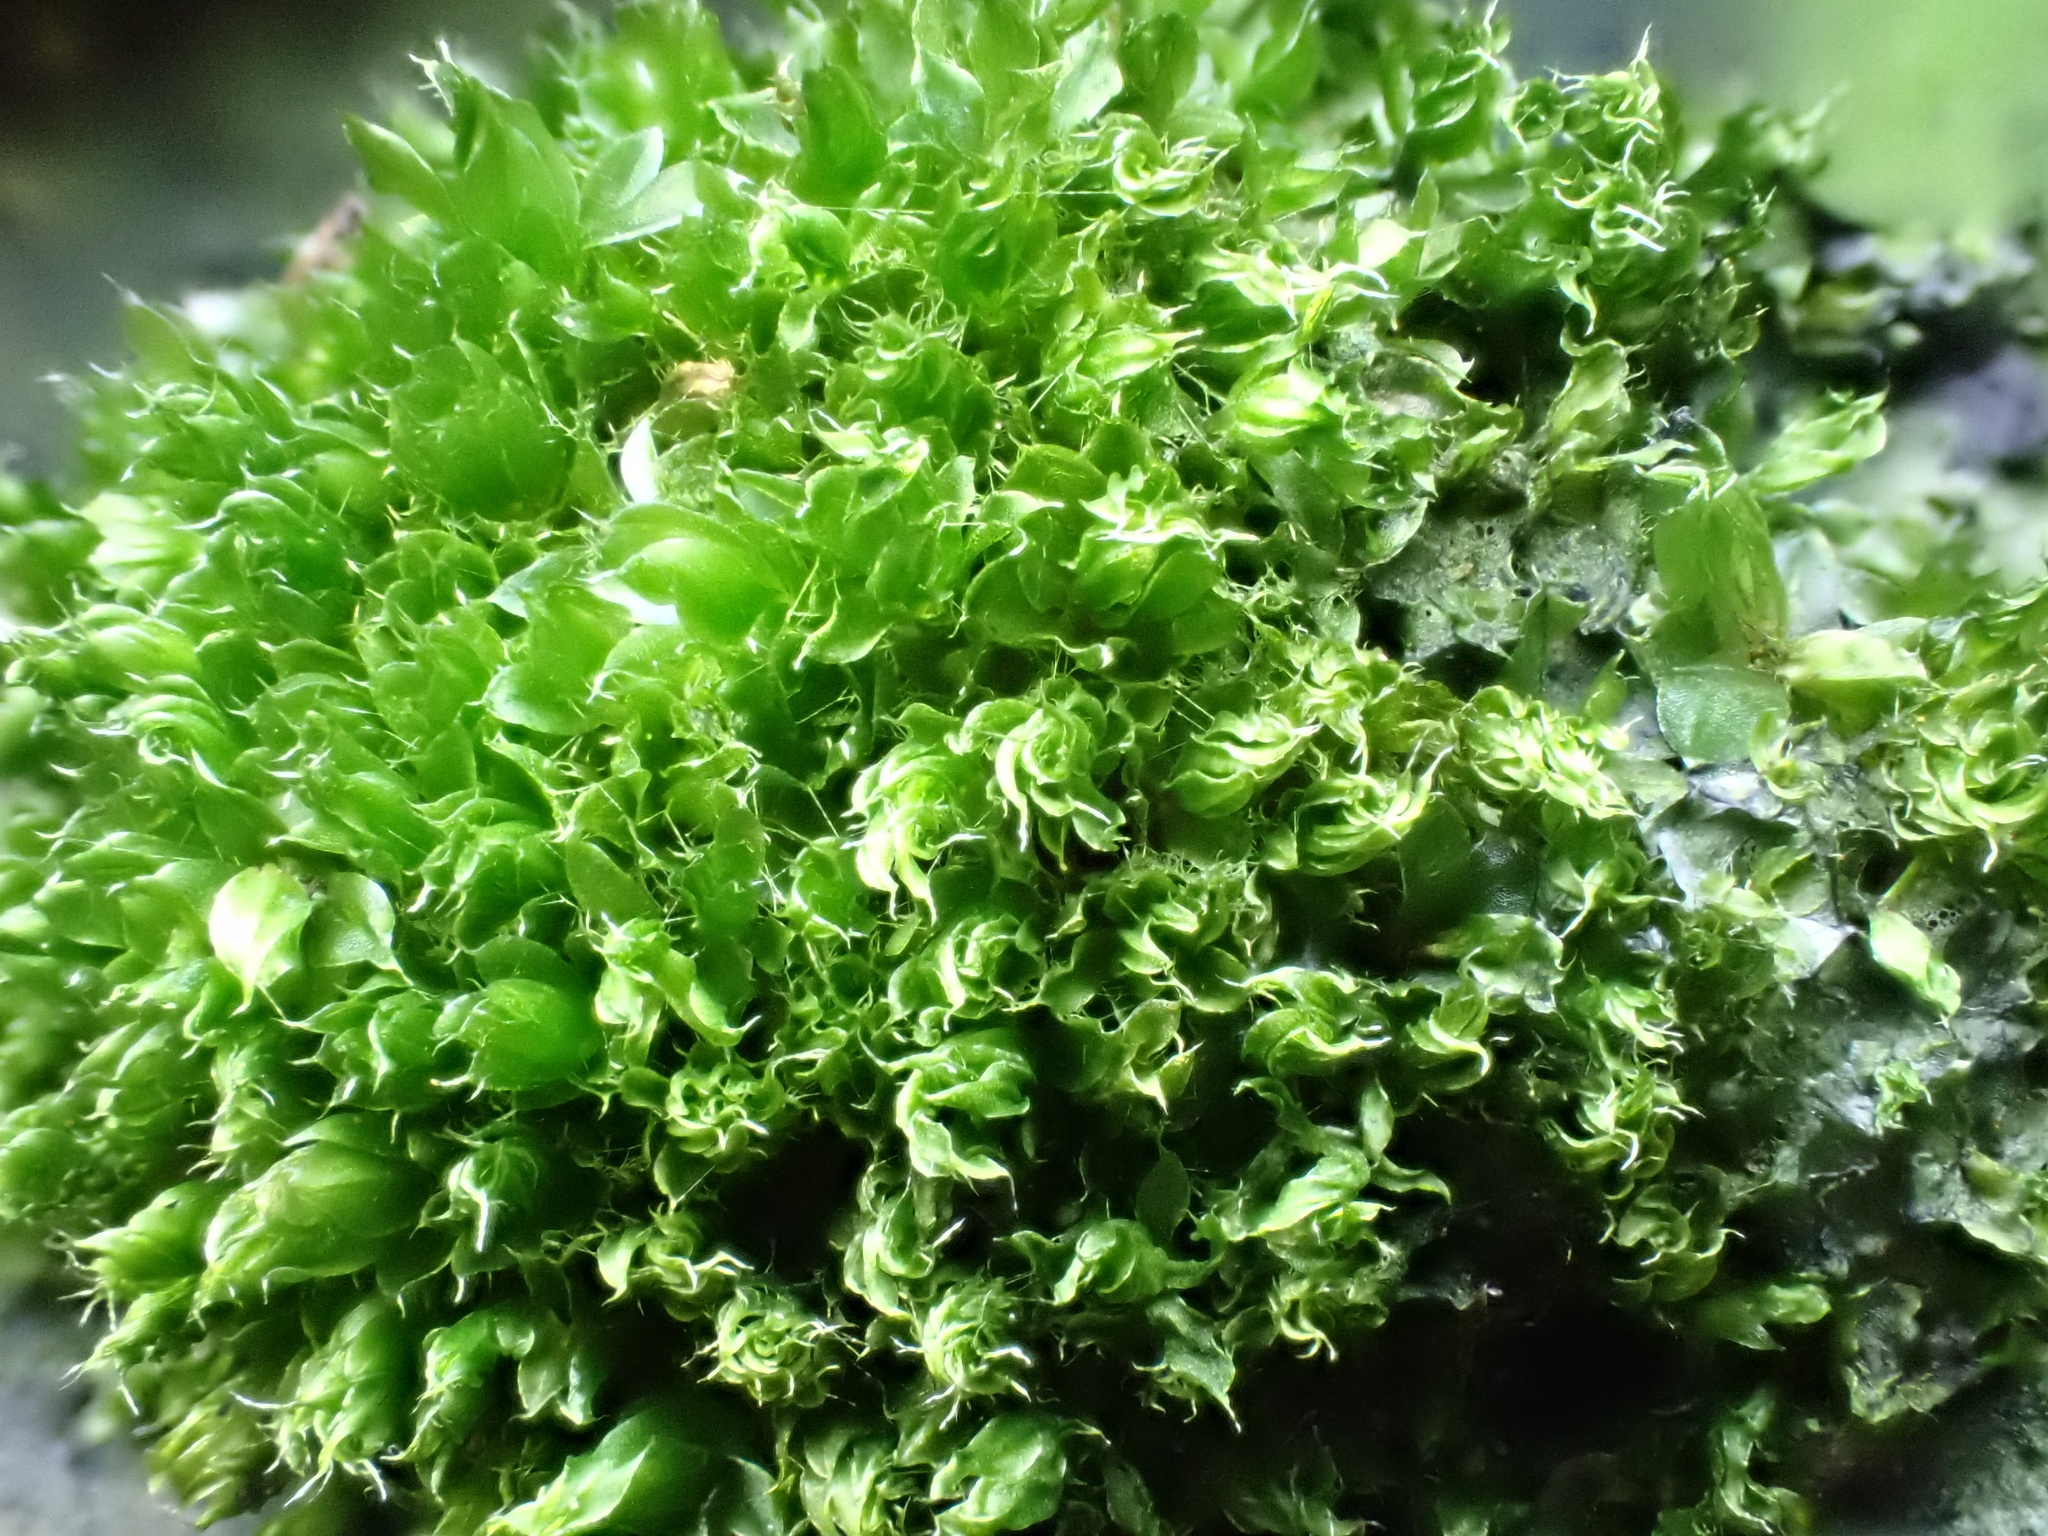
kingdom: Plantae
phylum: Bryophyta
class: Bryopsida
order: Bryales
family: Bryaceae
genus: Rosulabryum
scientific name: Rosulabryum capillare
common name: Capillary thread-moss
